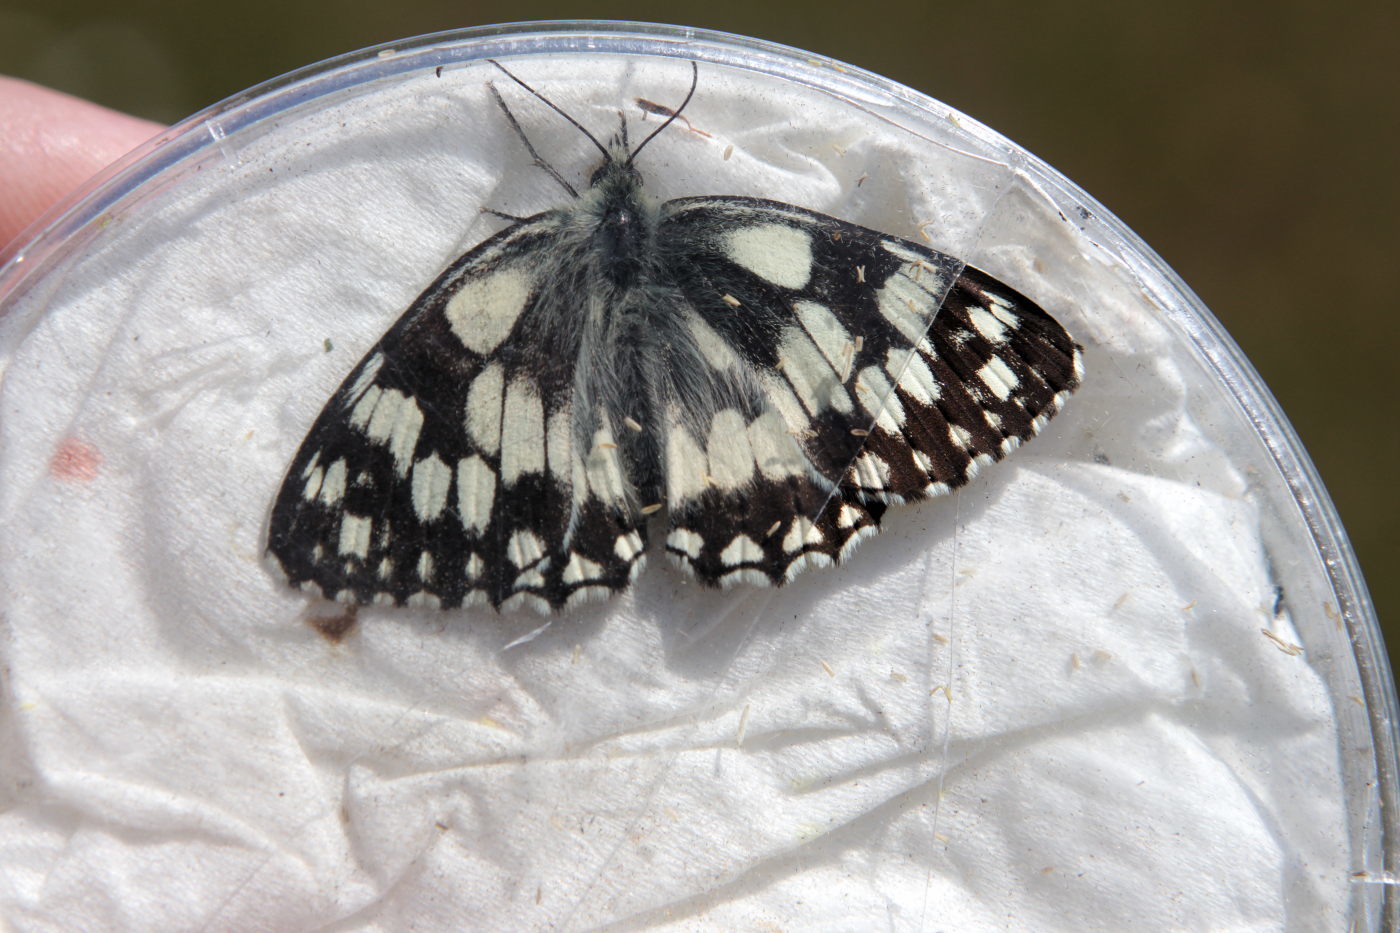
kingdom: Animalia
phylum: Arthropoda
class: Insecta
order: Lepidoptera
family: Nymphalidae
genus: Melanargia
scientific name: Melanargia galathea
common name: Marbled white
